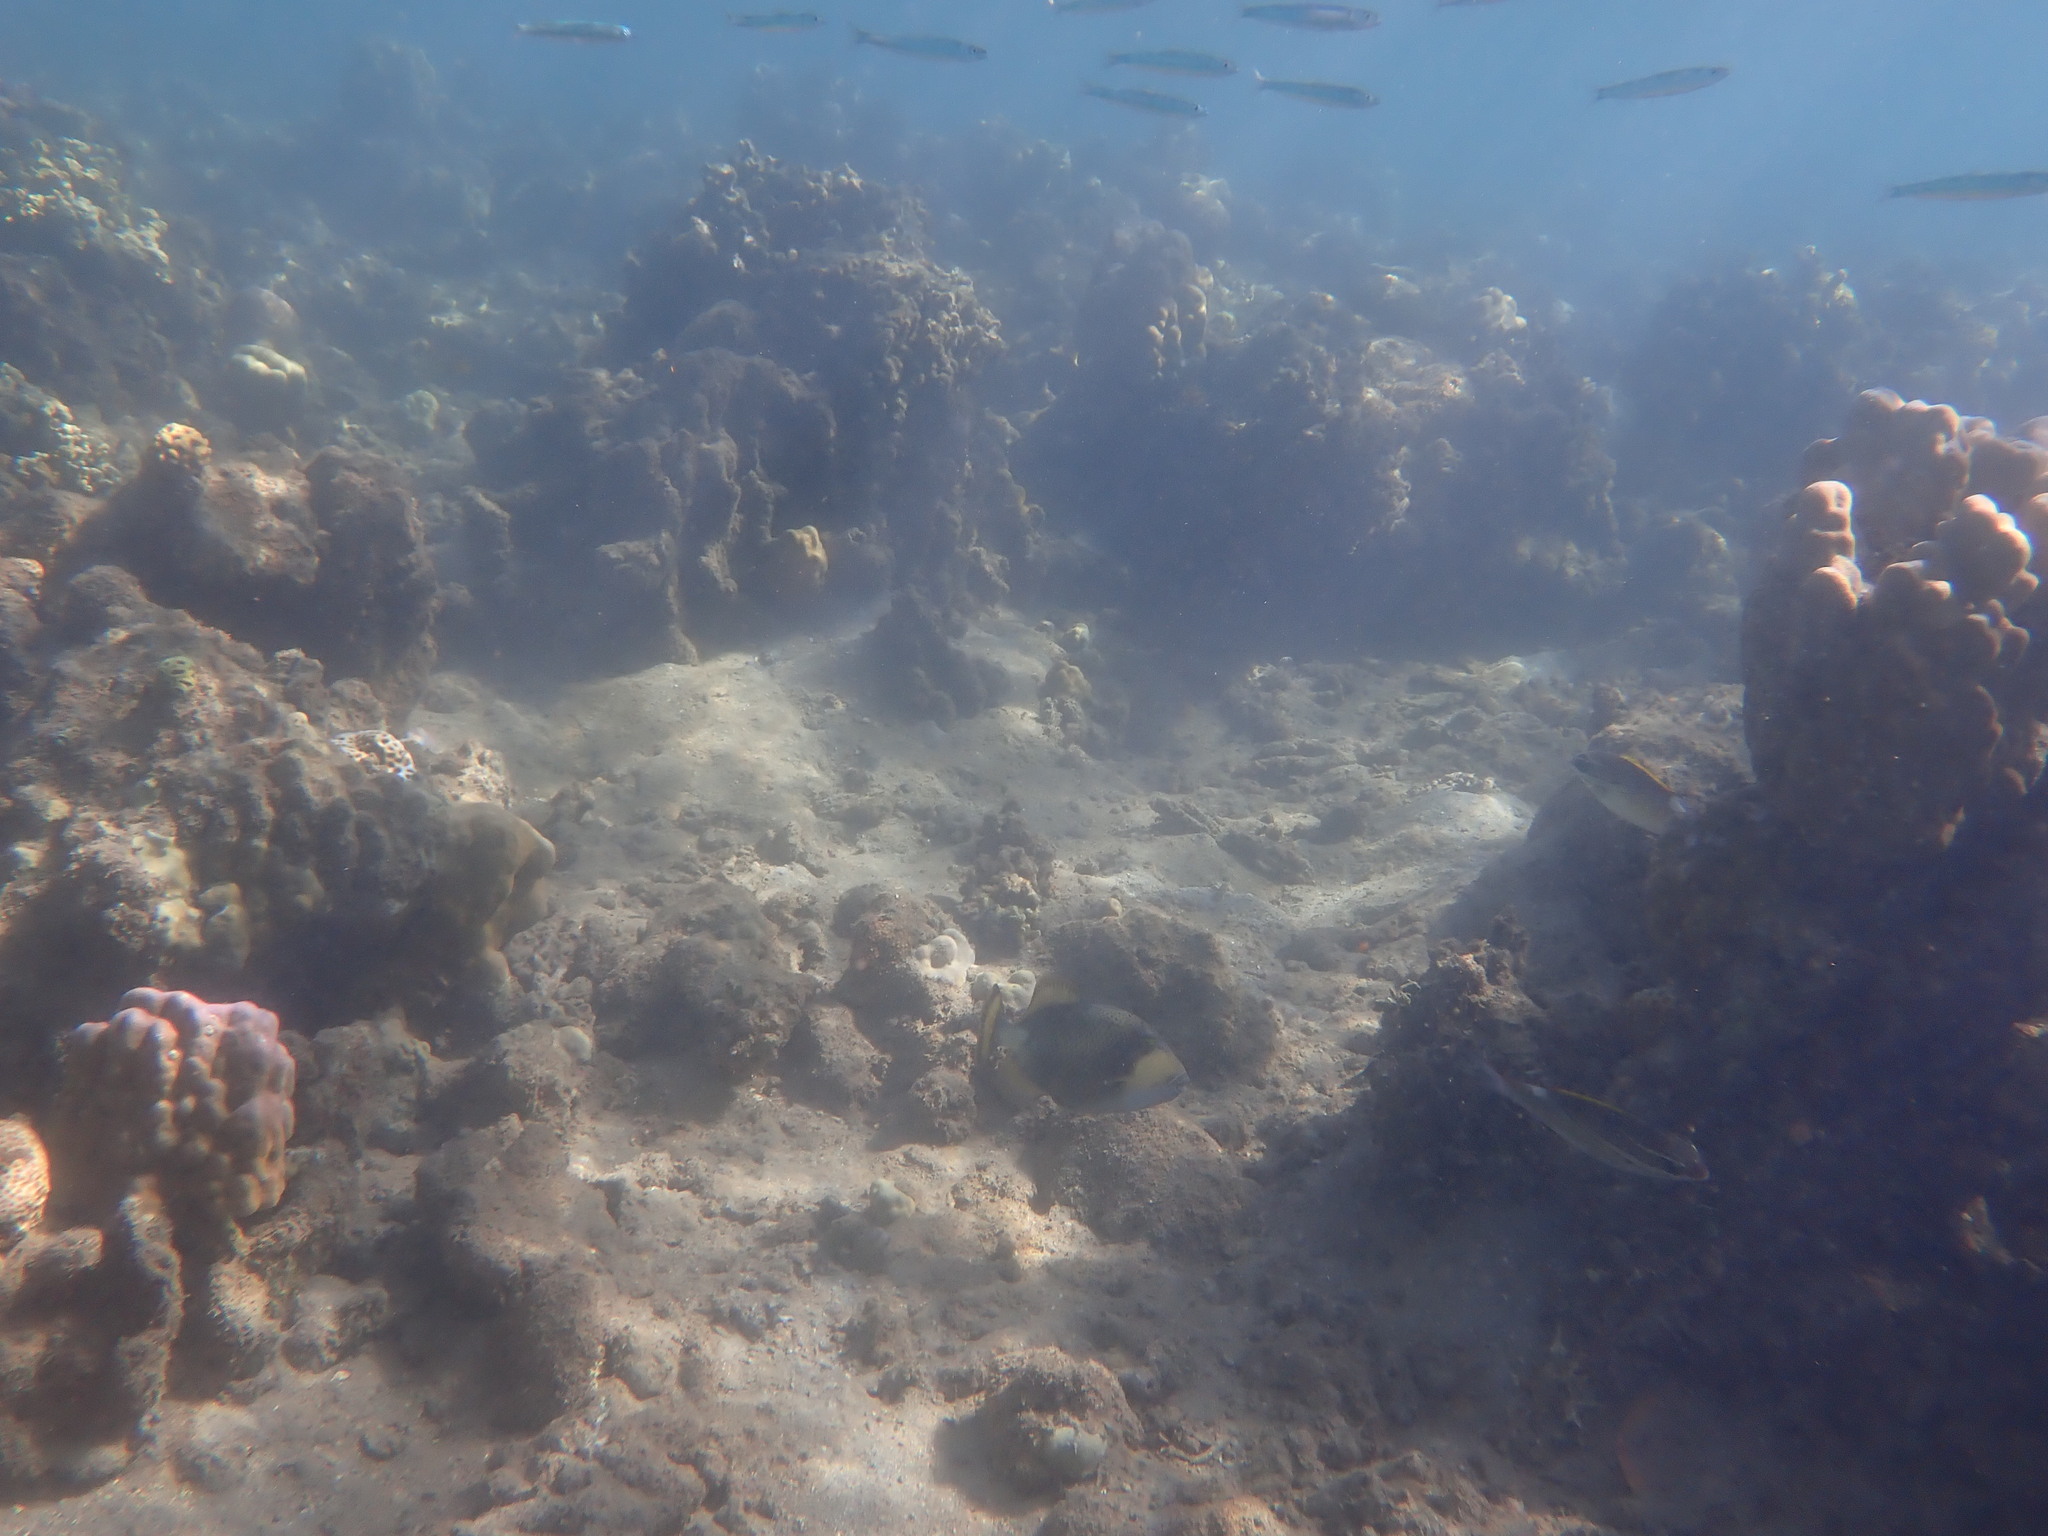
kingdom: Animalia
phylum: Chordata
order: Tetraodontiformes
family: Balistidae
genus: Balistoides
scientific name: Balistoides viridescens
